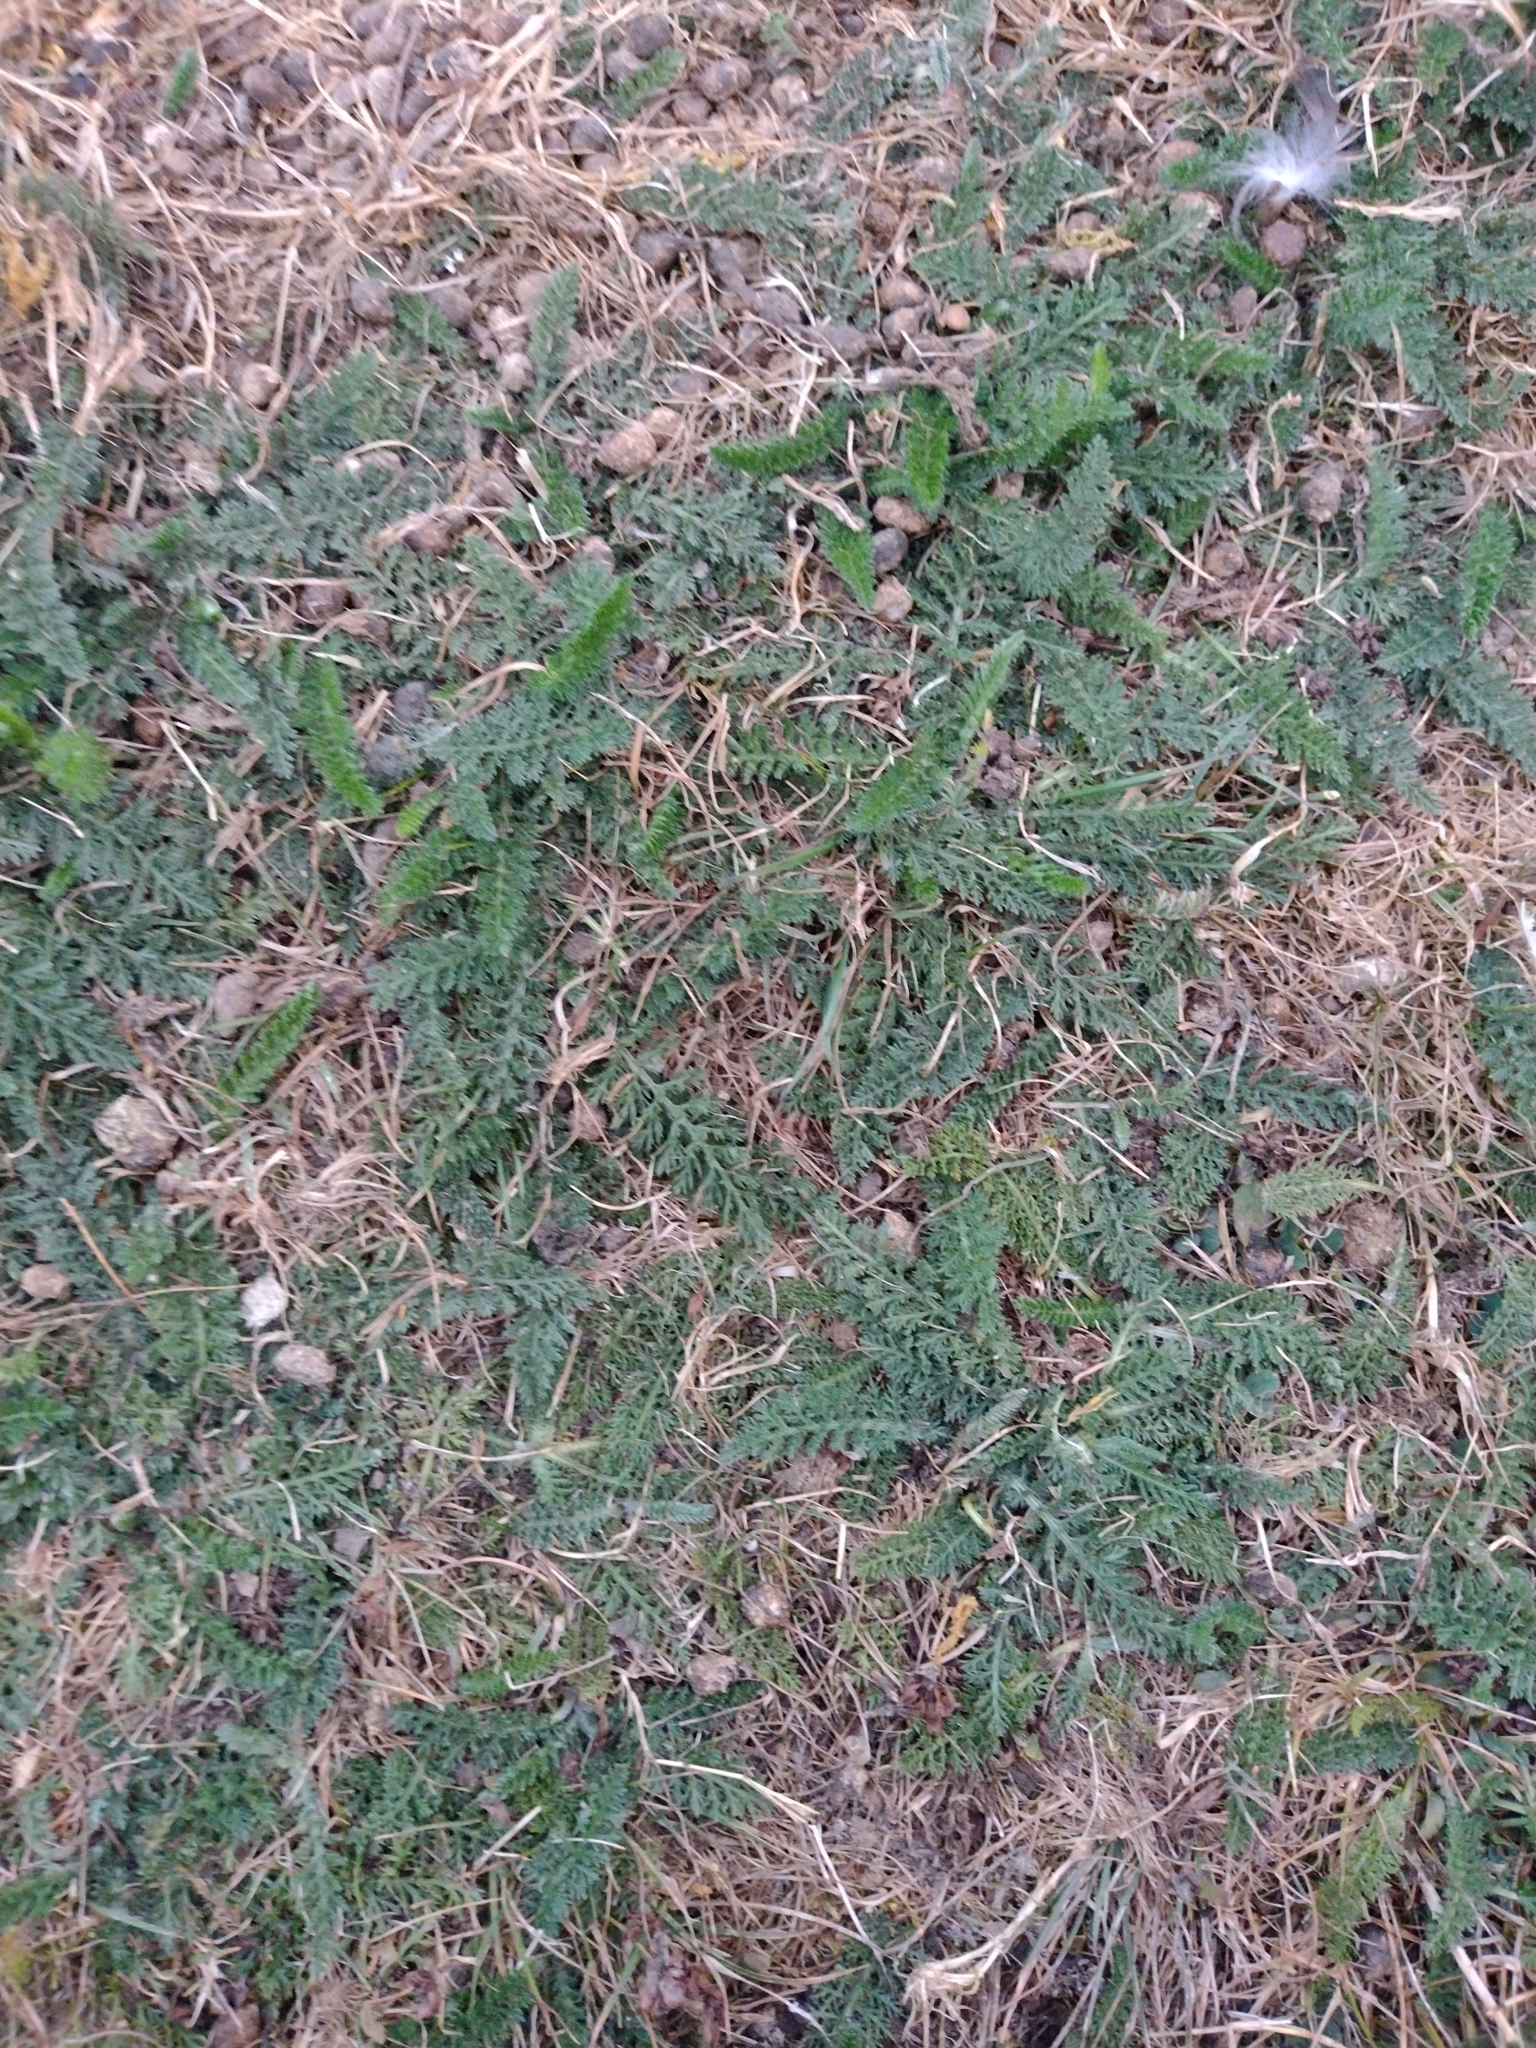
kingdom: Plantae
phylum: Tracheophyta
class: Magnoliopsida
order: Asterales
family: Asteraceae
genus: Achillea
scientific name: Achillea millefolium
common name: Yarrow
